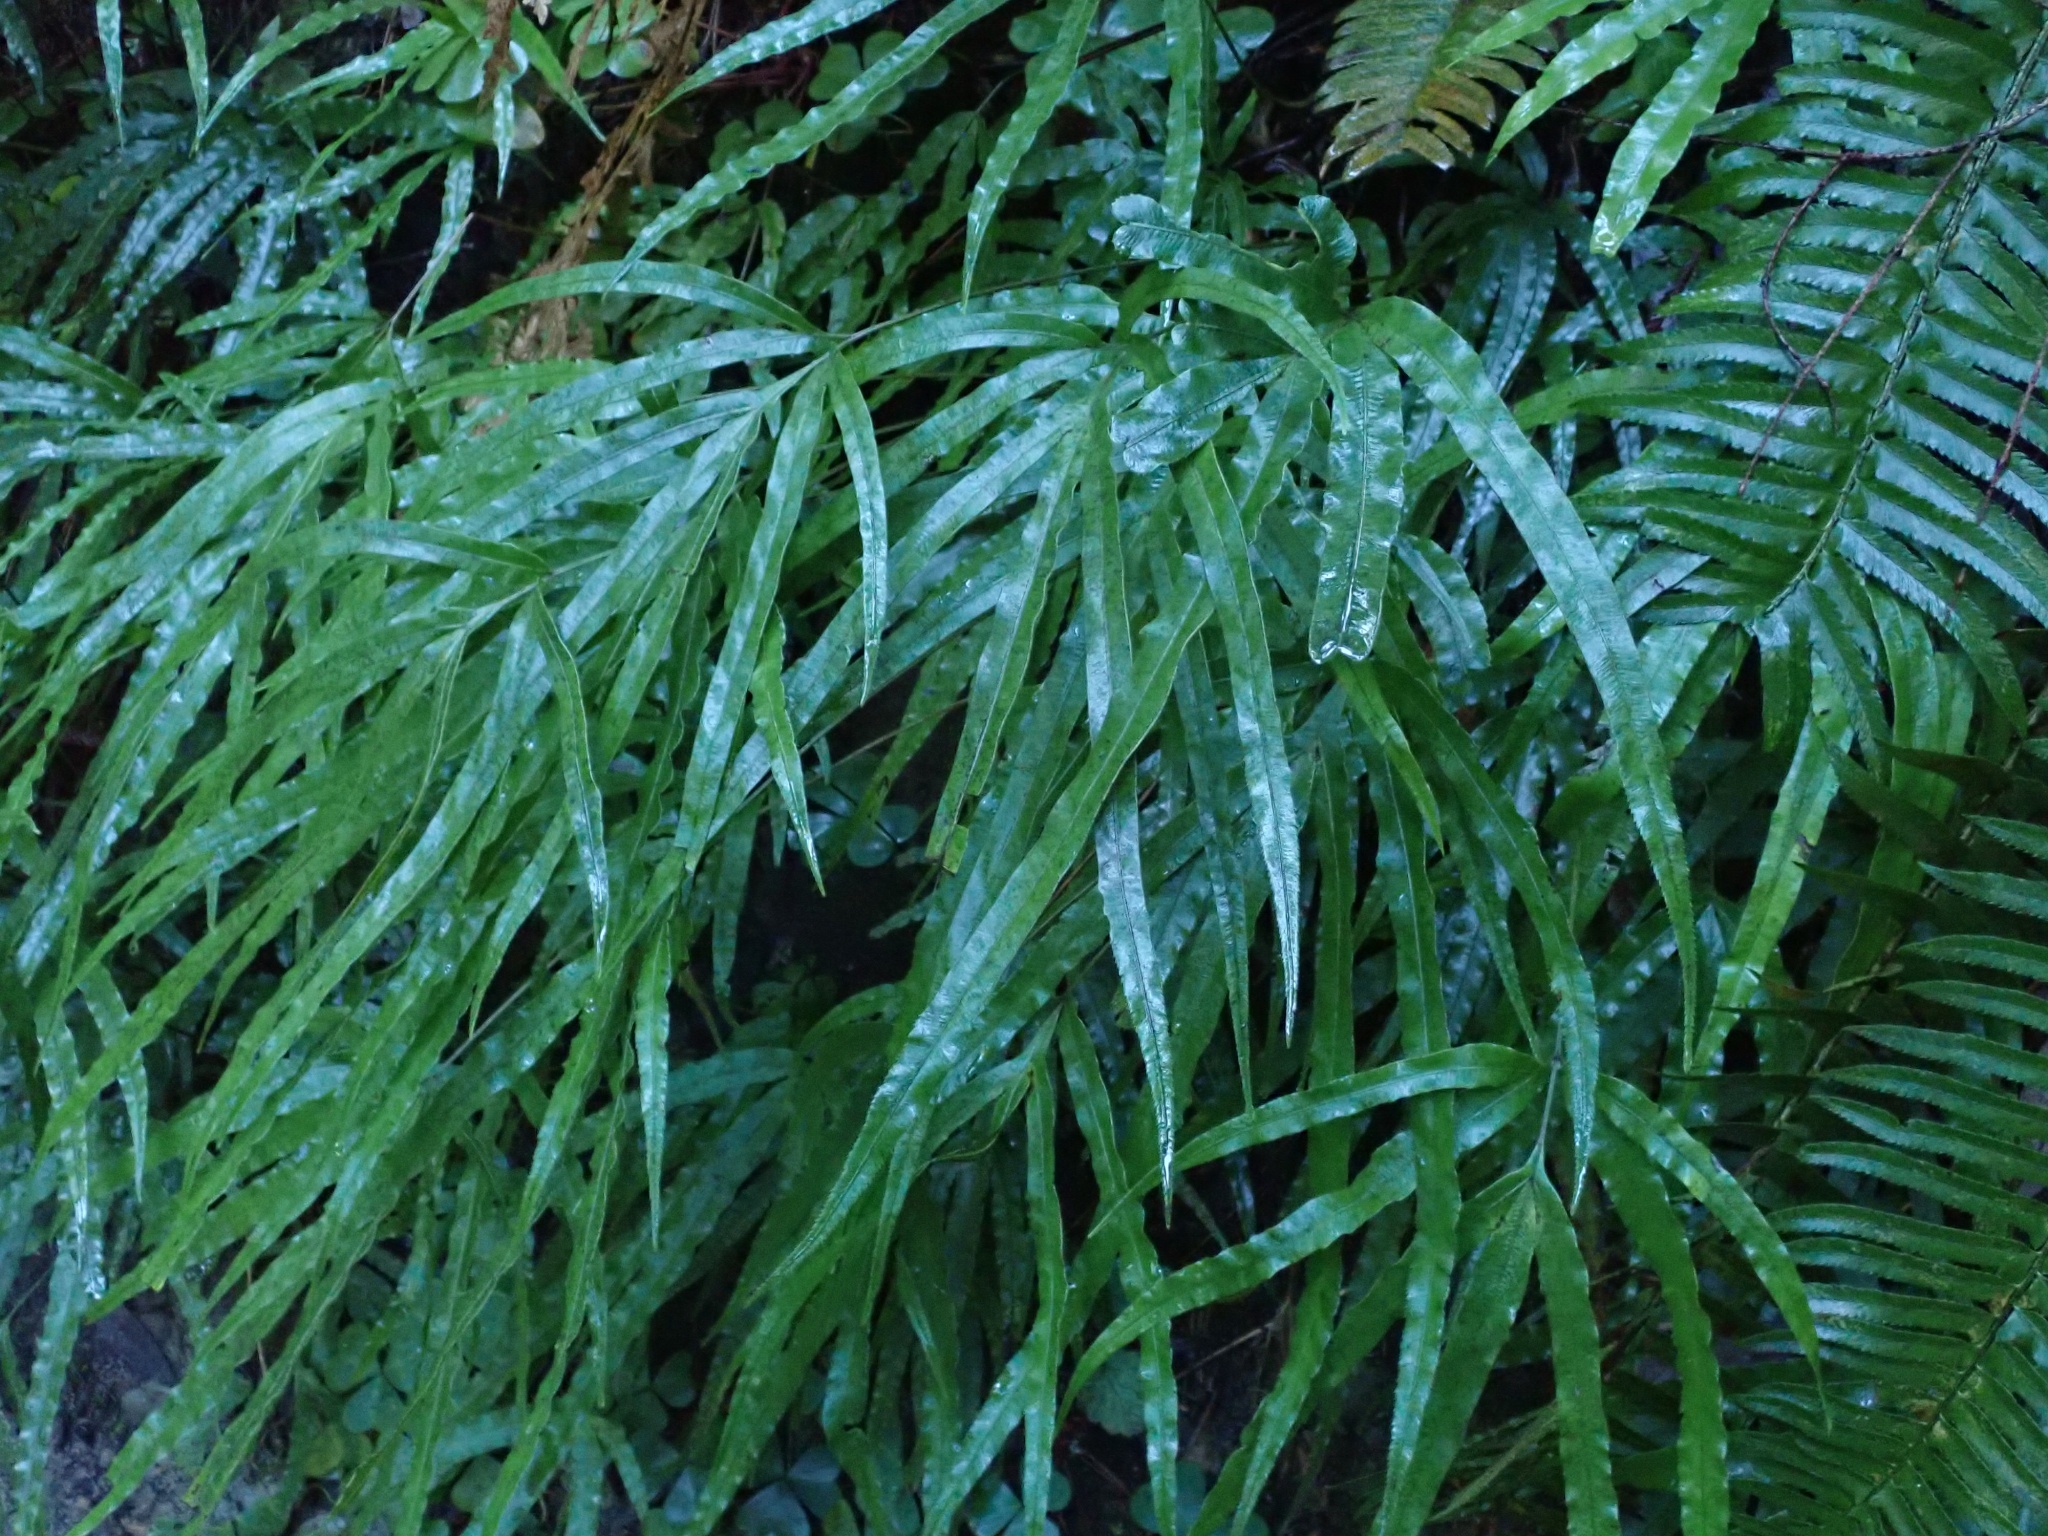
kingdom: Plantae
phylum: Tracheophyta
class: Polypodiopsida
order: Polypodiales
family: Pteridaceae
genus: Pteris
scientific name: Pteris cretica
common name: Ribbon fern
